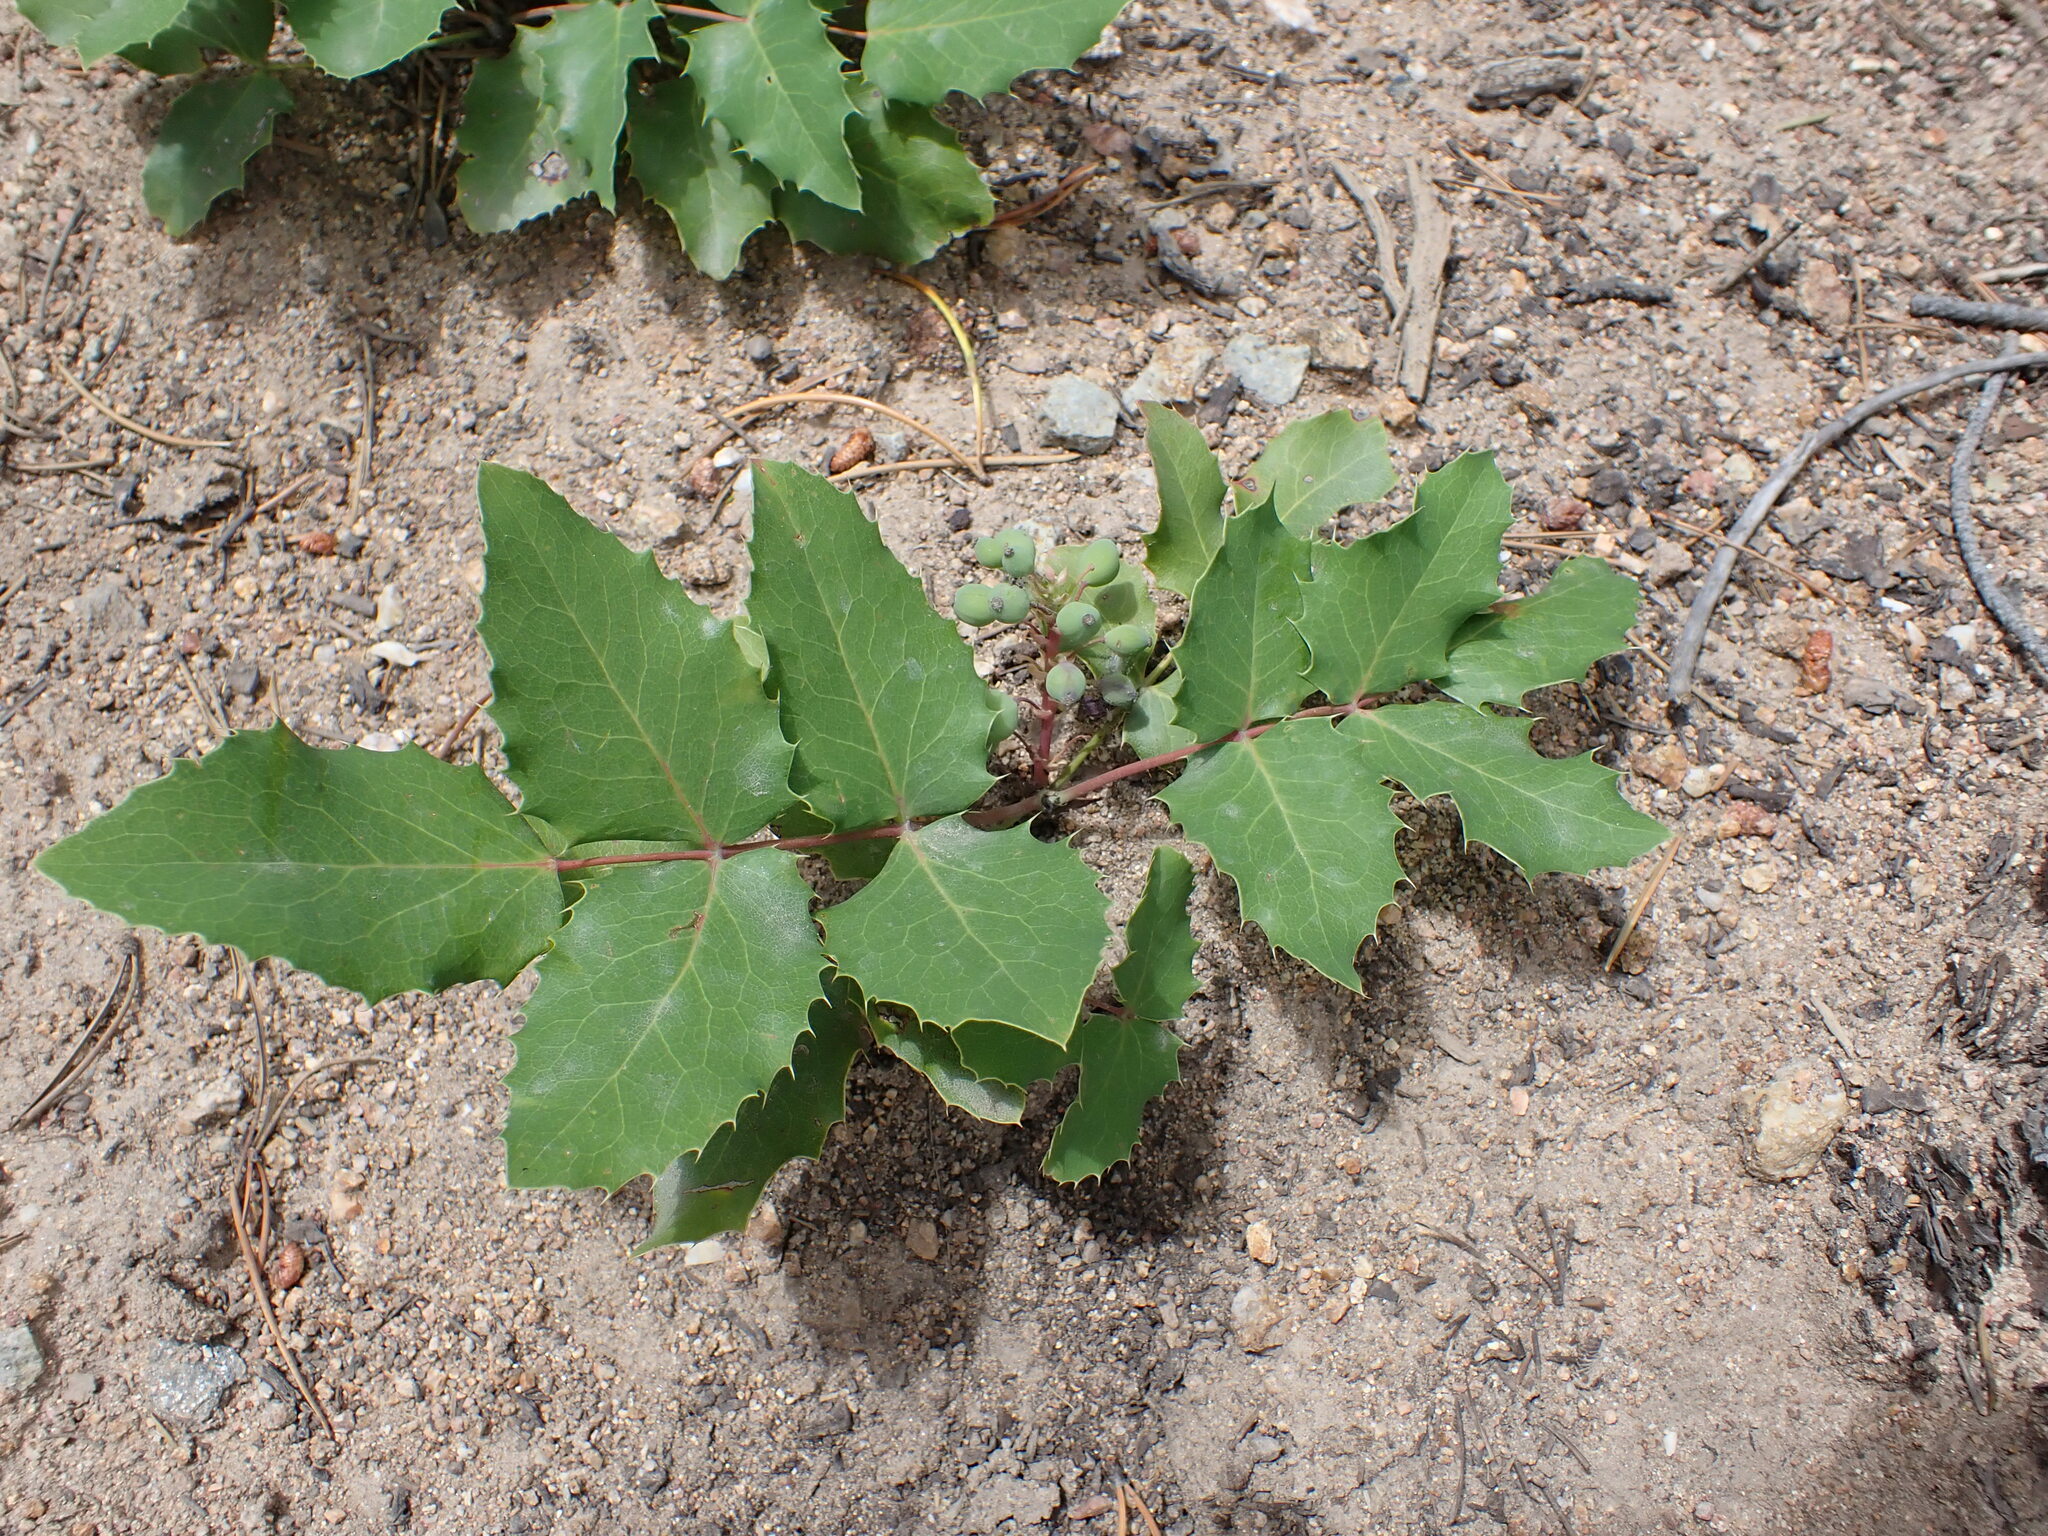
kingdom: Plantae
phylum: Tracheophyta
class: Magnoliopsida
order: Ranunculales
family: Berberidaceae
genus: Mahonia
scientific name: Mahonia repens
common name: Creeping oregon-grape
